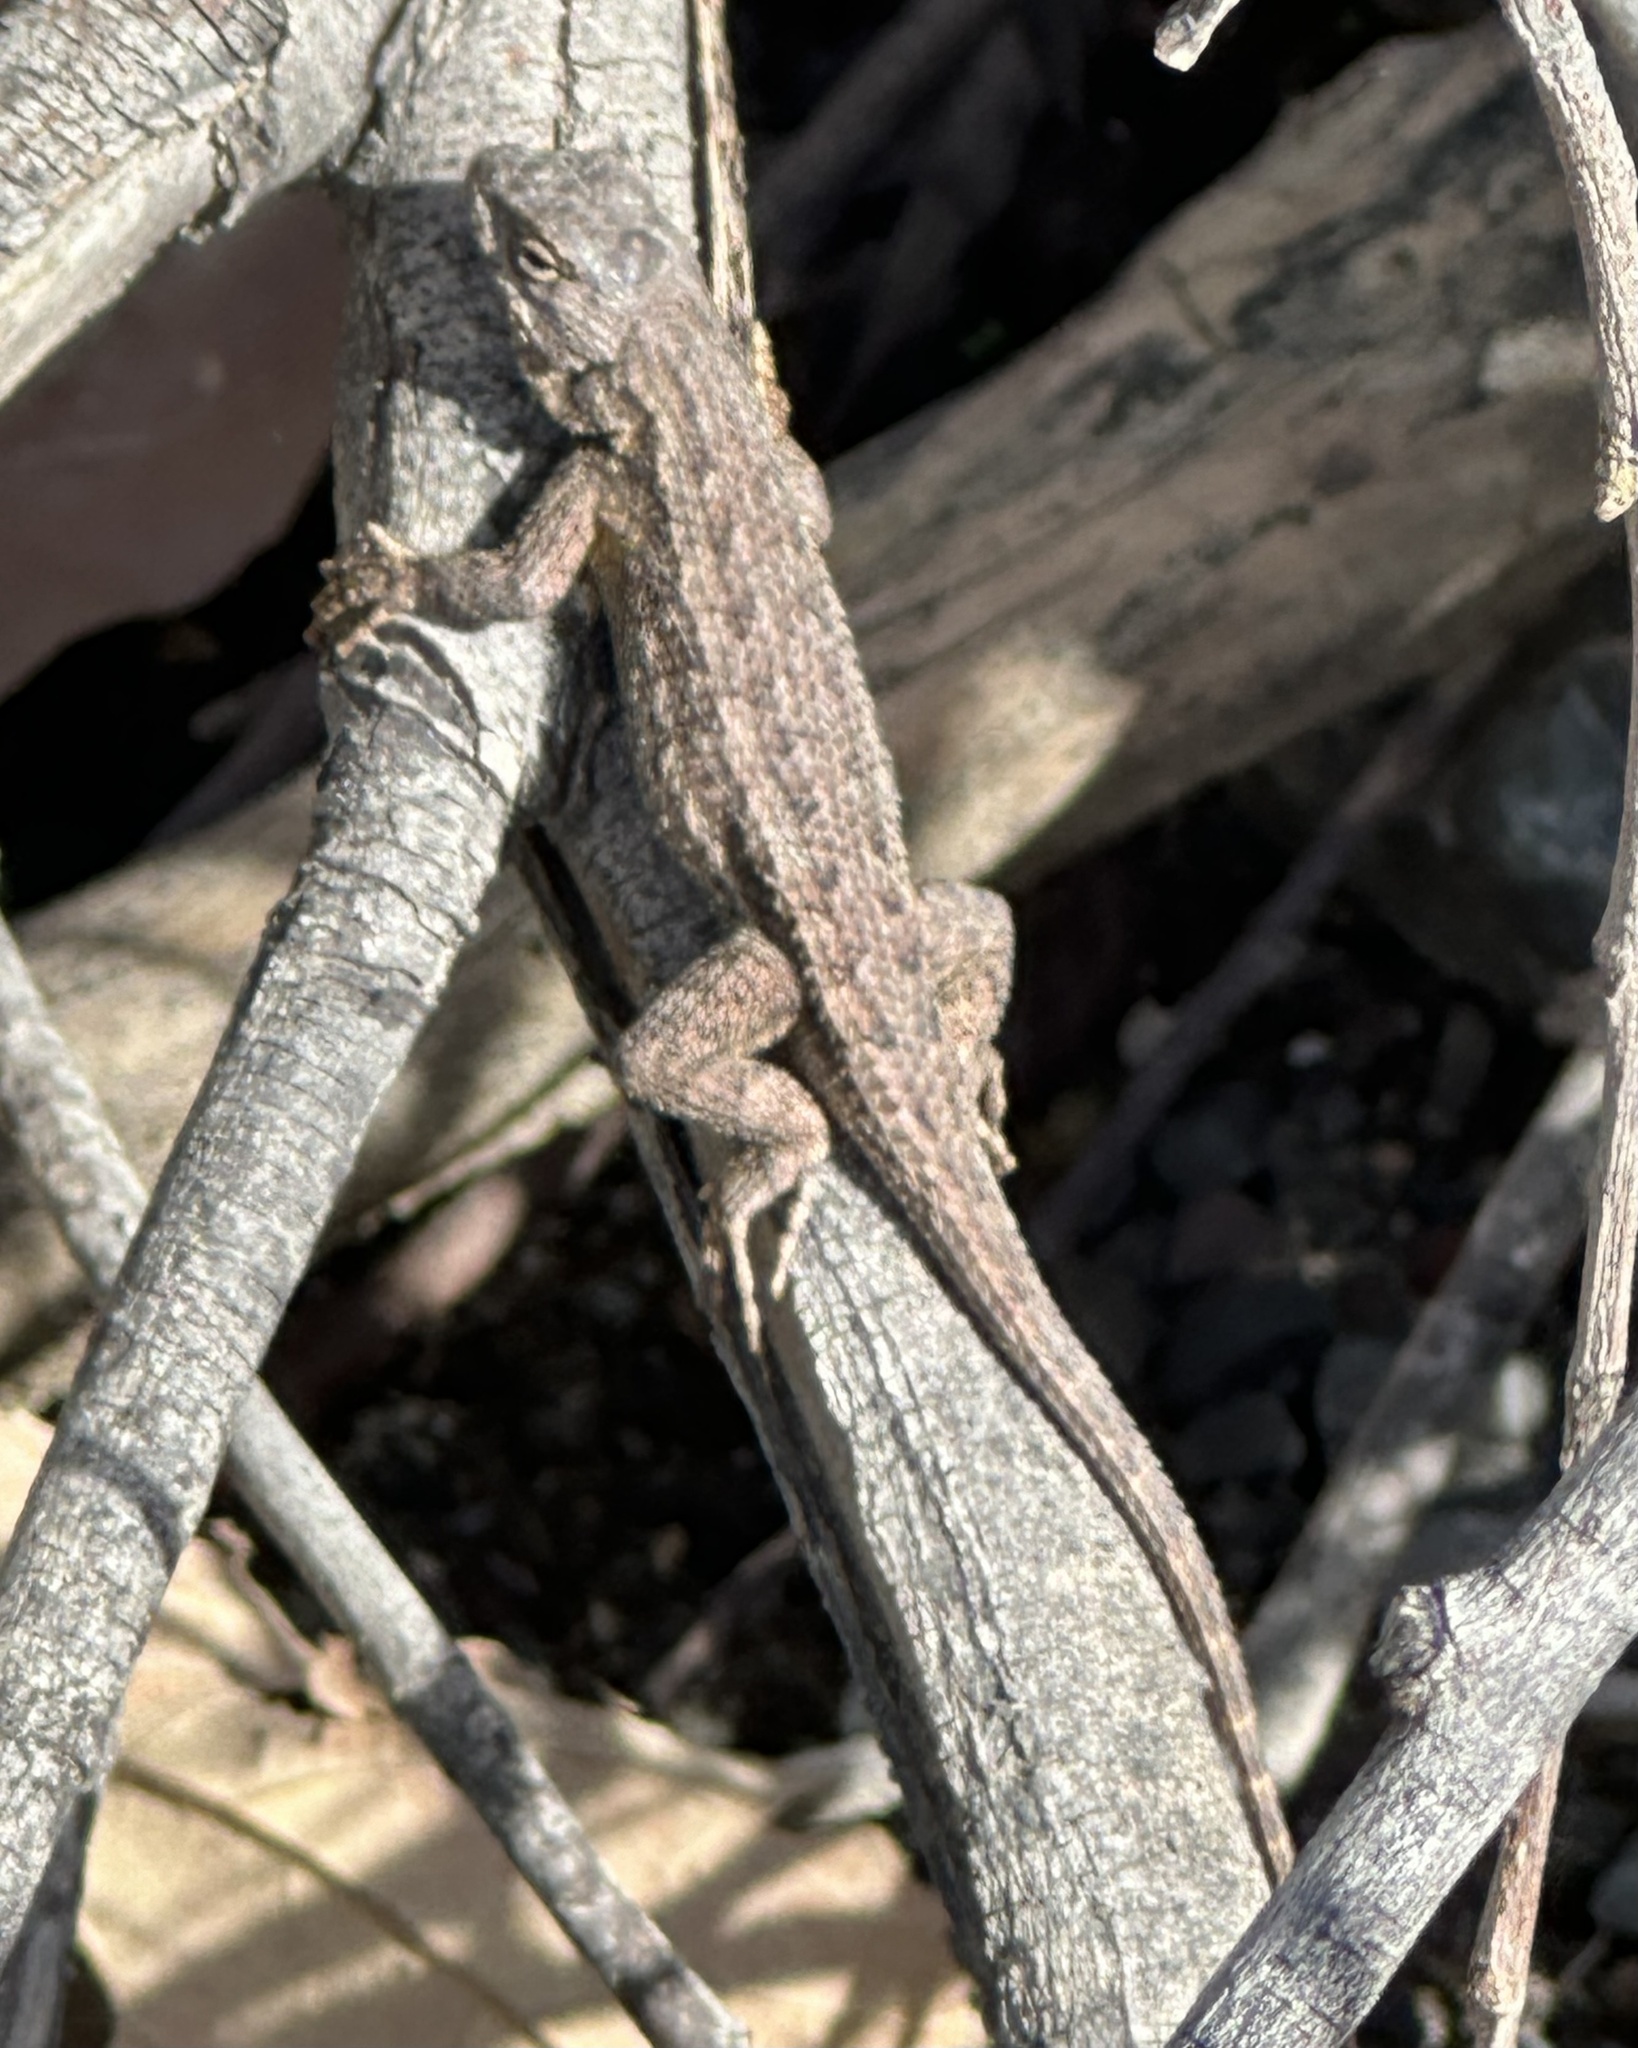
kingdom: Animalia
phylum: Chordata
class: Squamata
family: Phrynosomatidae
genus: Sceloporus
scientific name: Sceloporus occidentalis
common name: Western fence lizard
